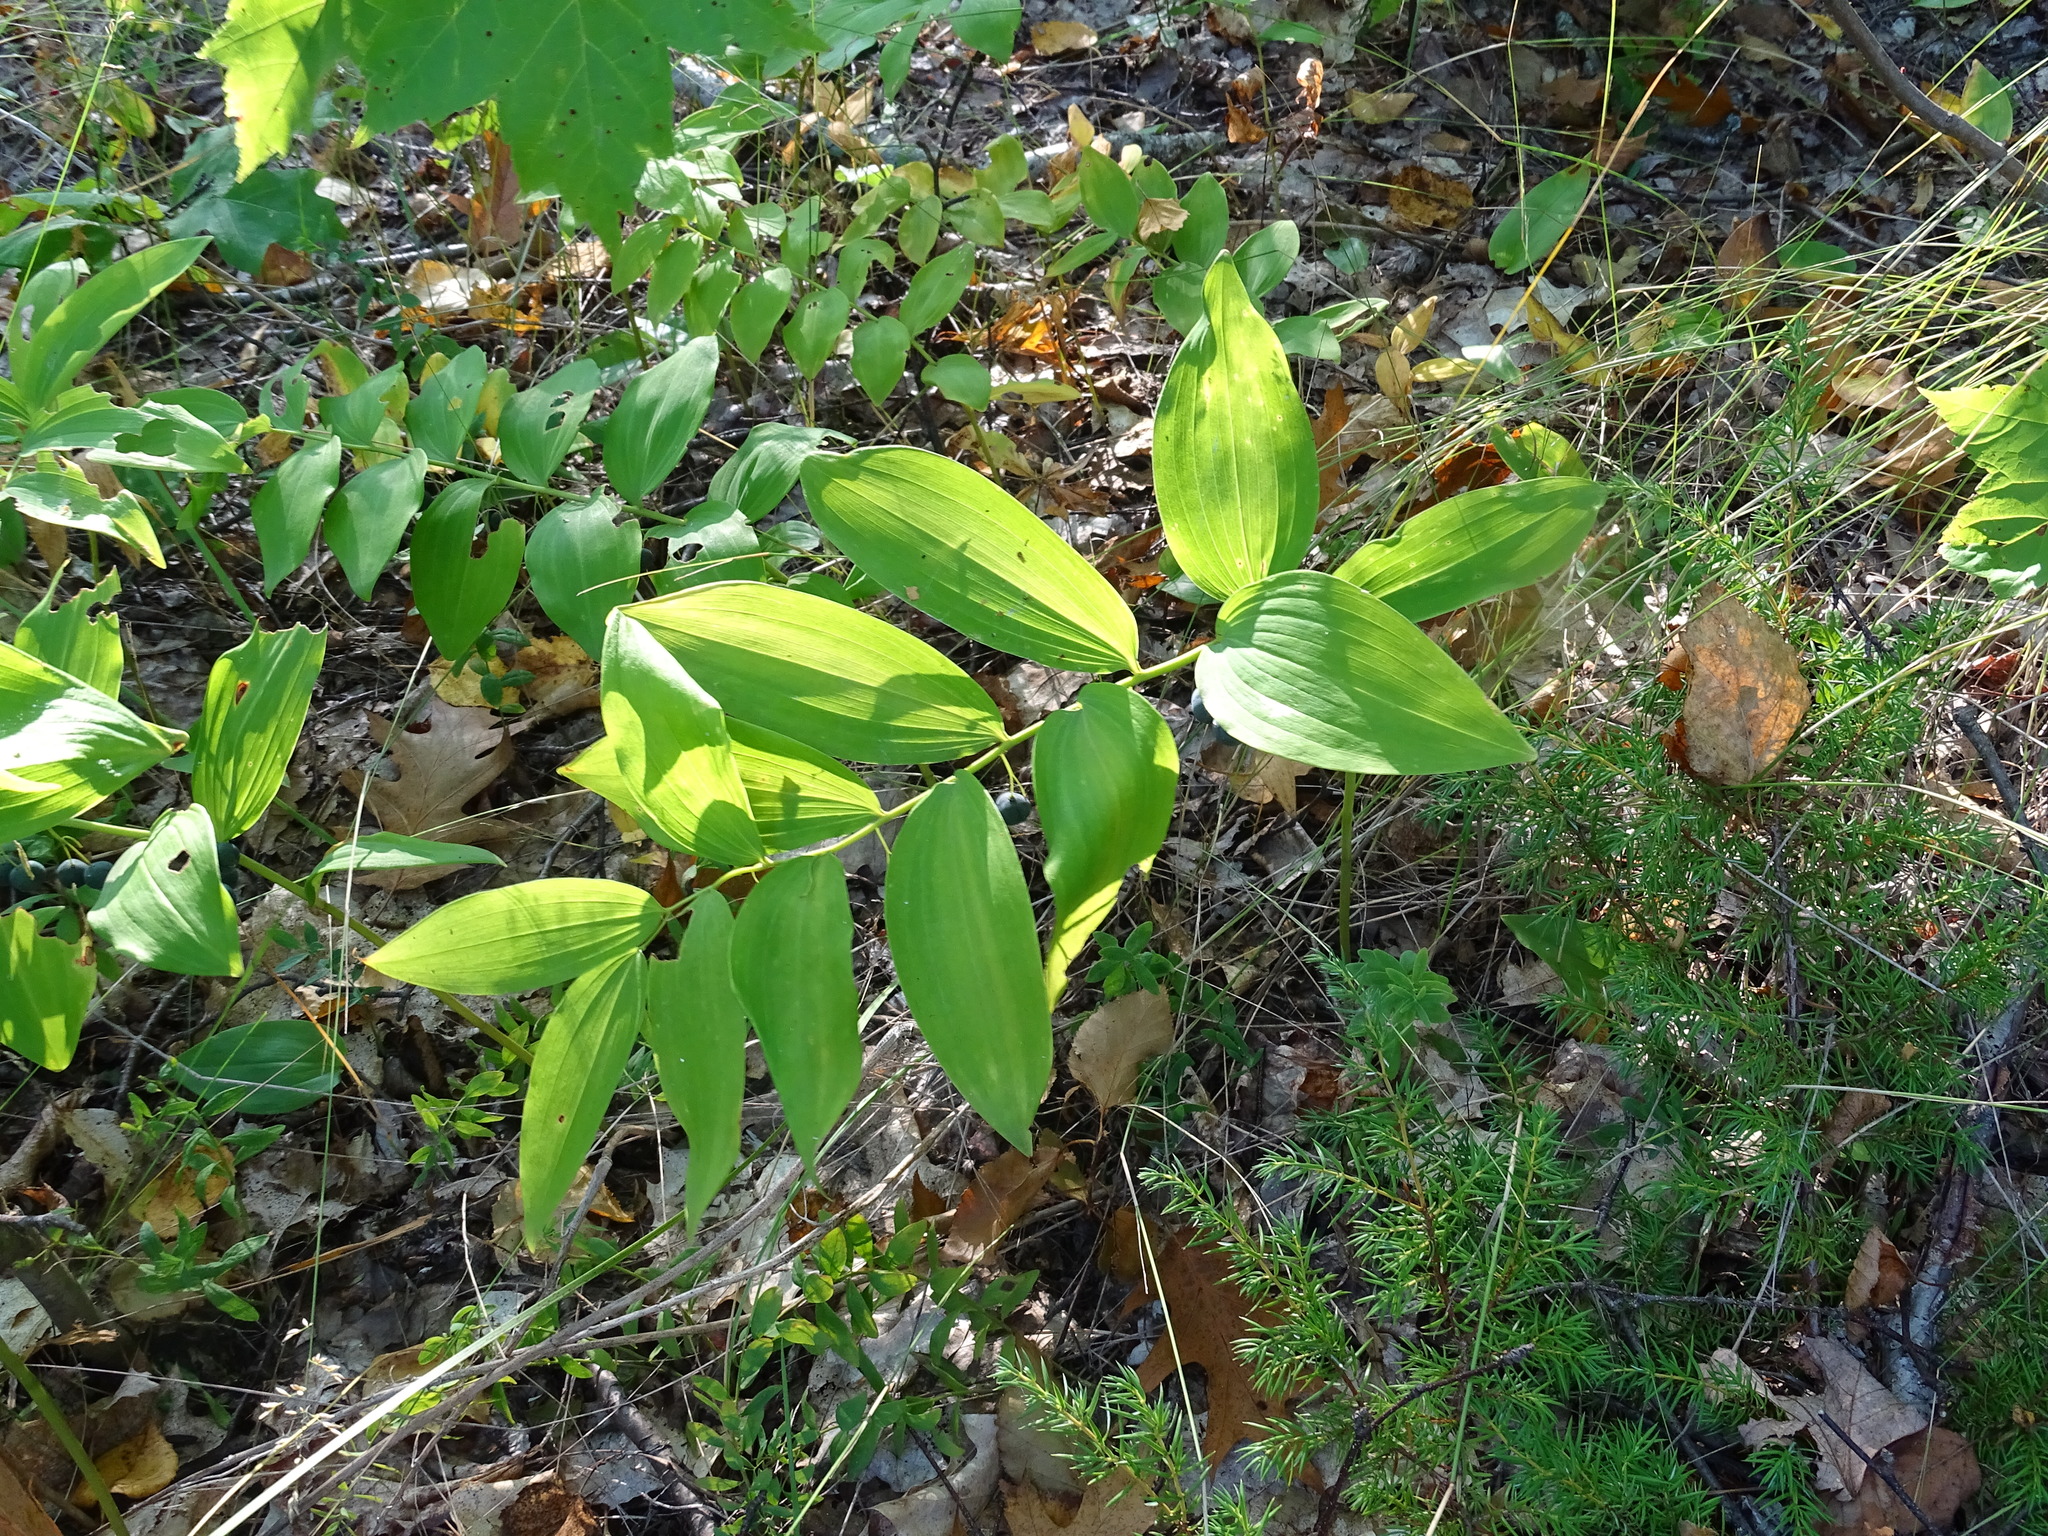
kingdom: Plantae
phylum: Tracheophyta
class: Liliopsida
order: Asparagales
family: Asparagaceae
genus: Polygonatum
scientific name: Polygonatum pubescens
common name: Downy solomon's seal
